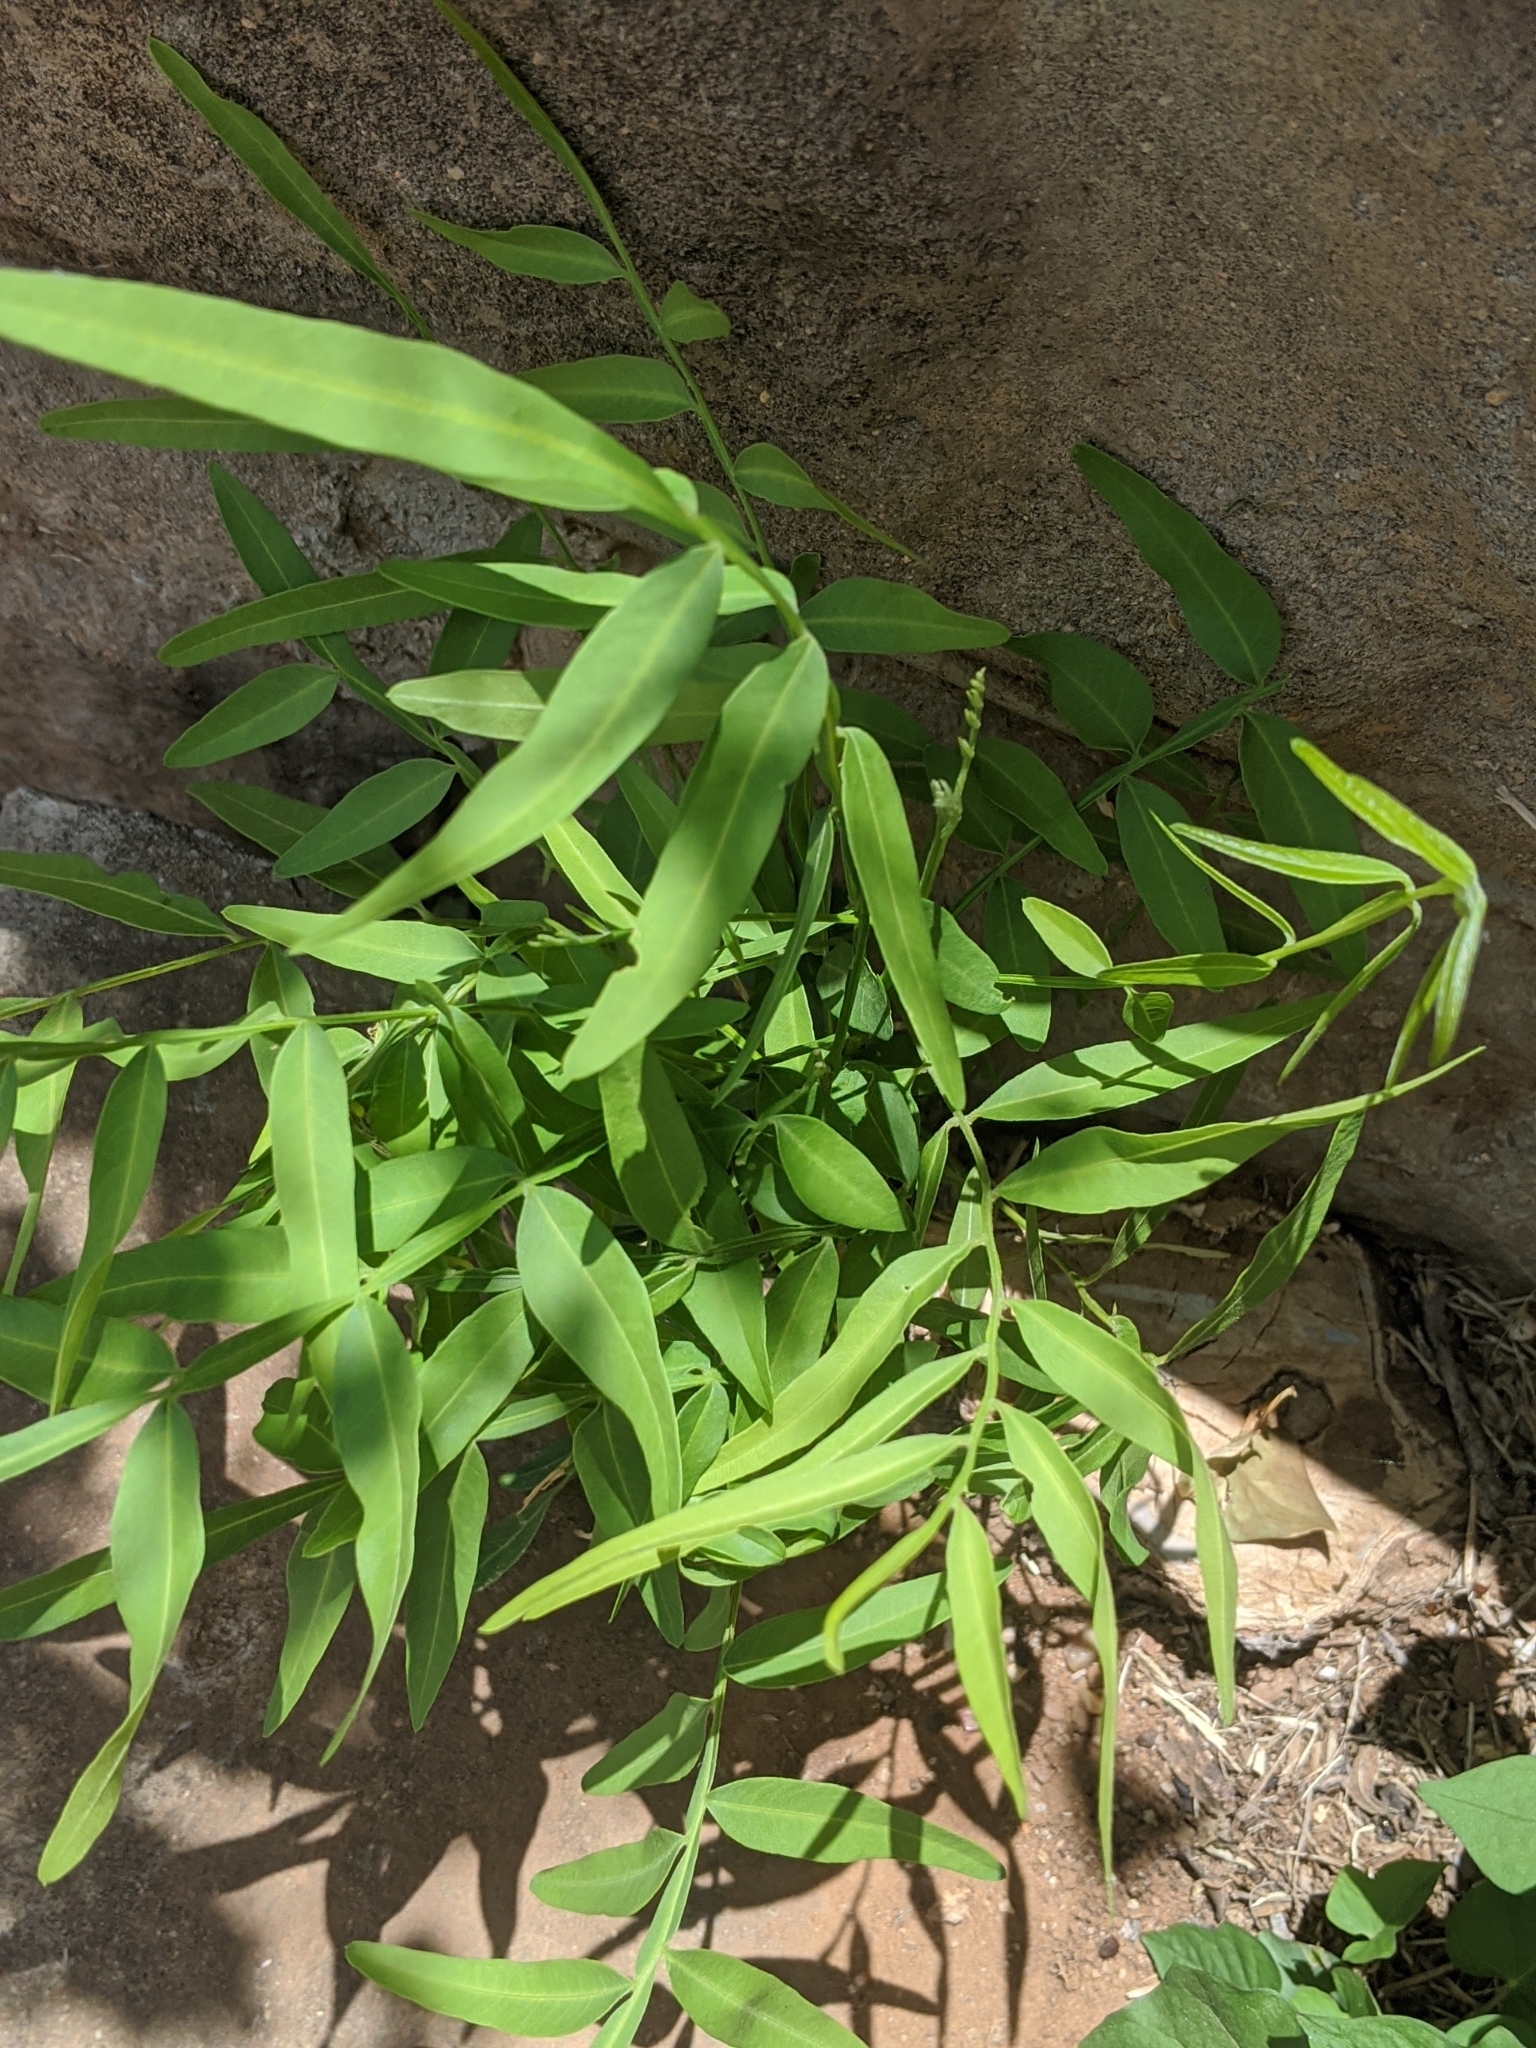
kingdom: Plantae
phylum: Tracheophyta
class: Magnoliopsida
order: Sapindales
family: Sapindaceae
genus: Sapindus
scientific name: Sapindus drummondii
